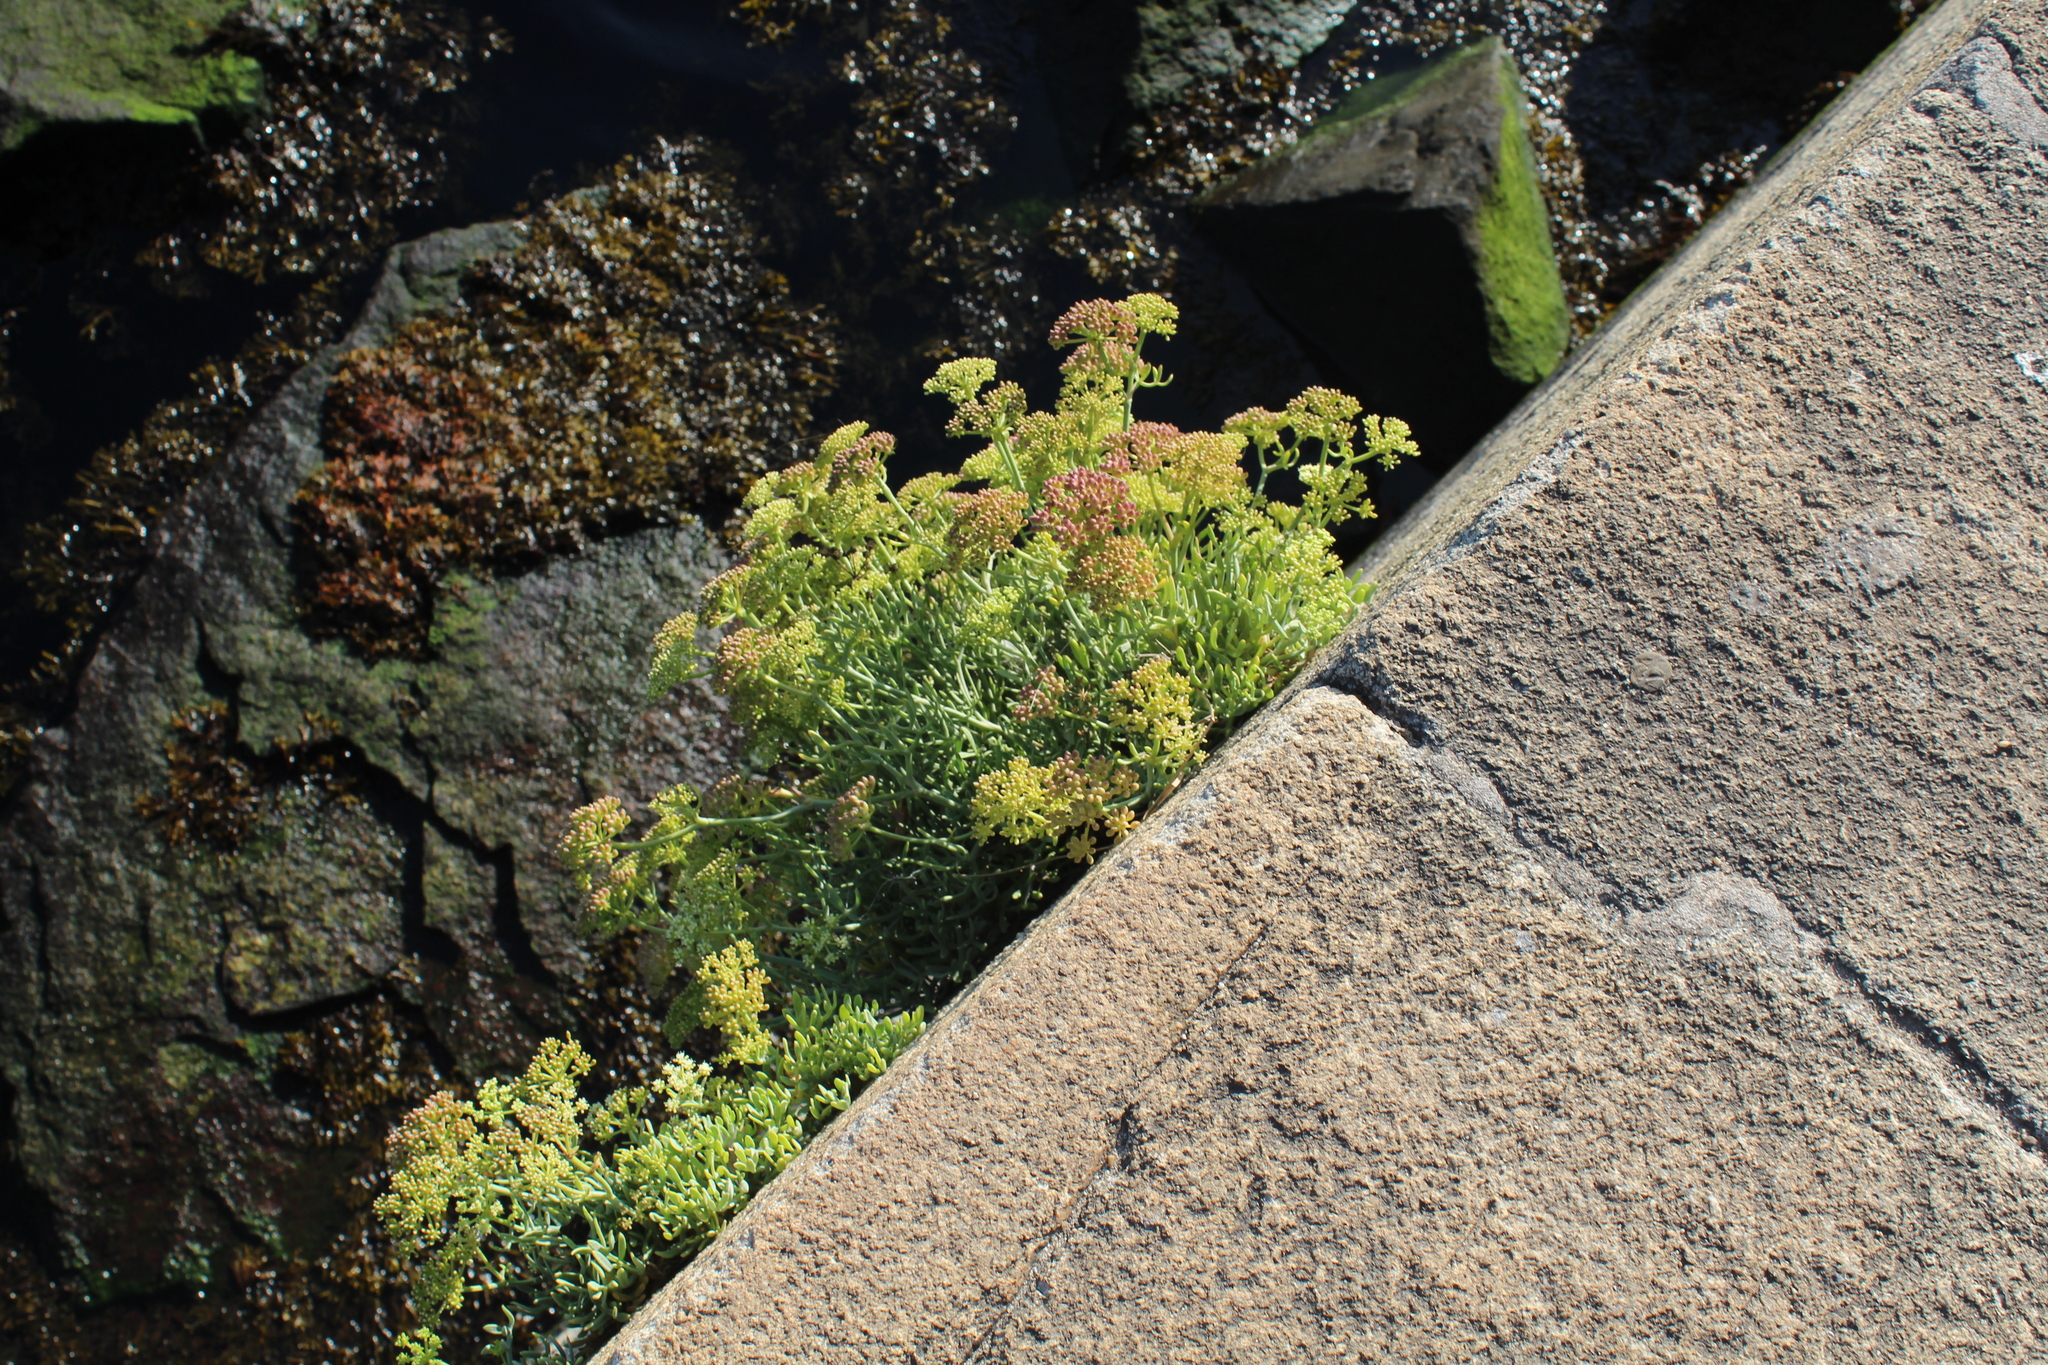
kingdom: Plantae
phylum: Tracheophyta
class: Magnoliopsida
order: Apiales
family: Apiaceae
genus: Crithmum
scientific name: Crithmum maritimum
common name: Rock samphire
